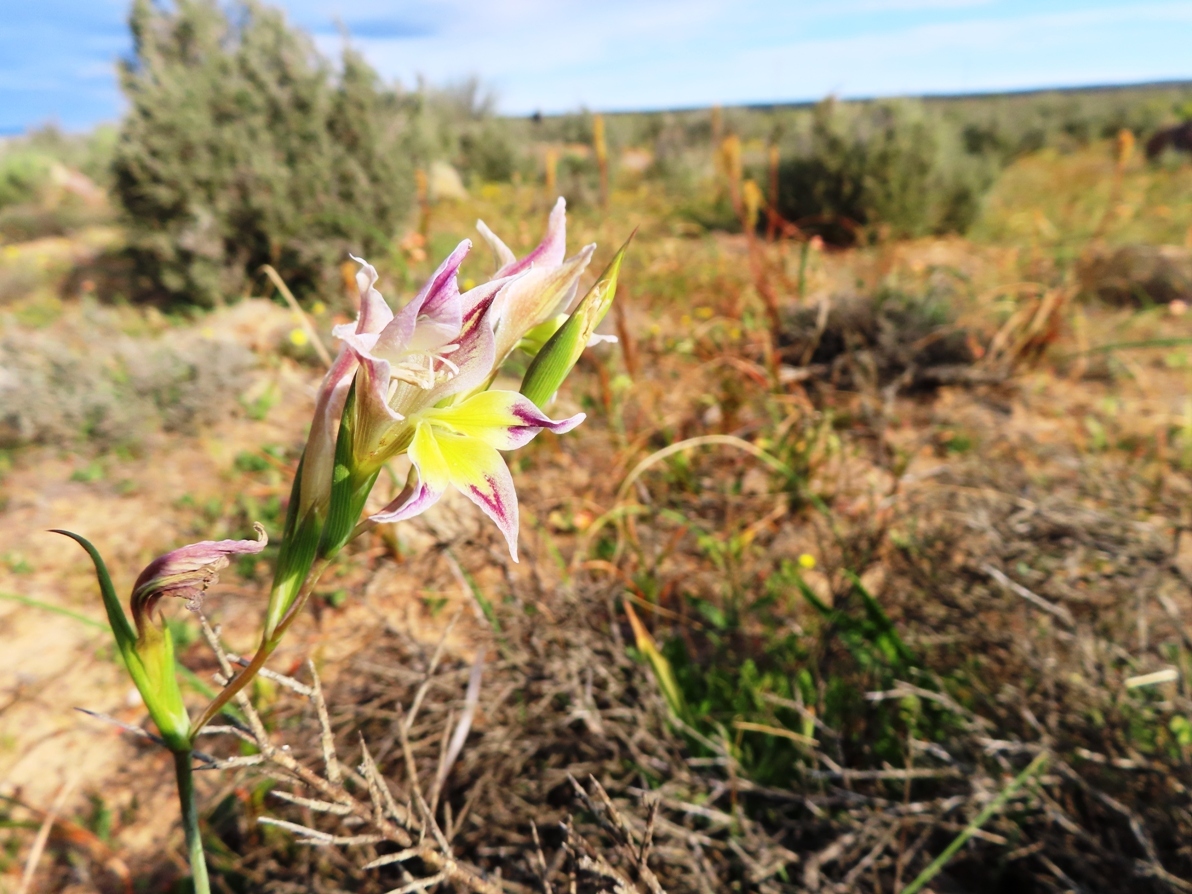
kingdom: Plantae
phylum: Tracheophyta
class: Liliopsida
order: Asparagales
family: Iridaceae
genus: Gladiolus
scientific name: Gladiolus venustus
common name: Purple kalkoentjie
